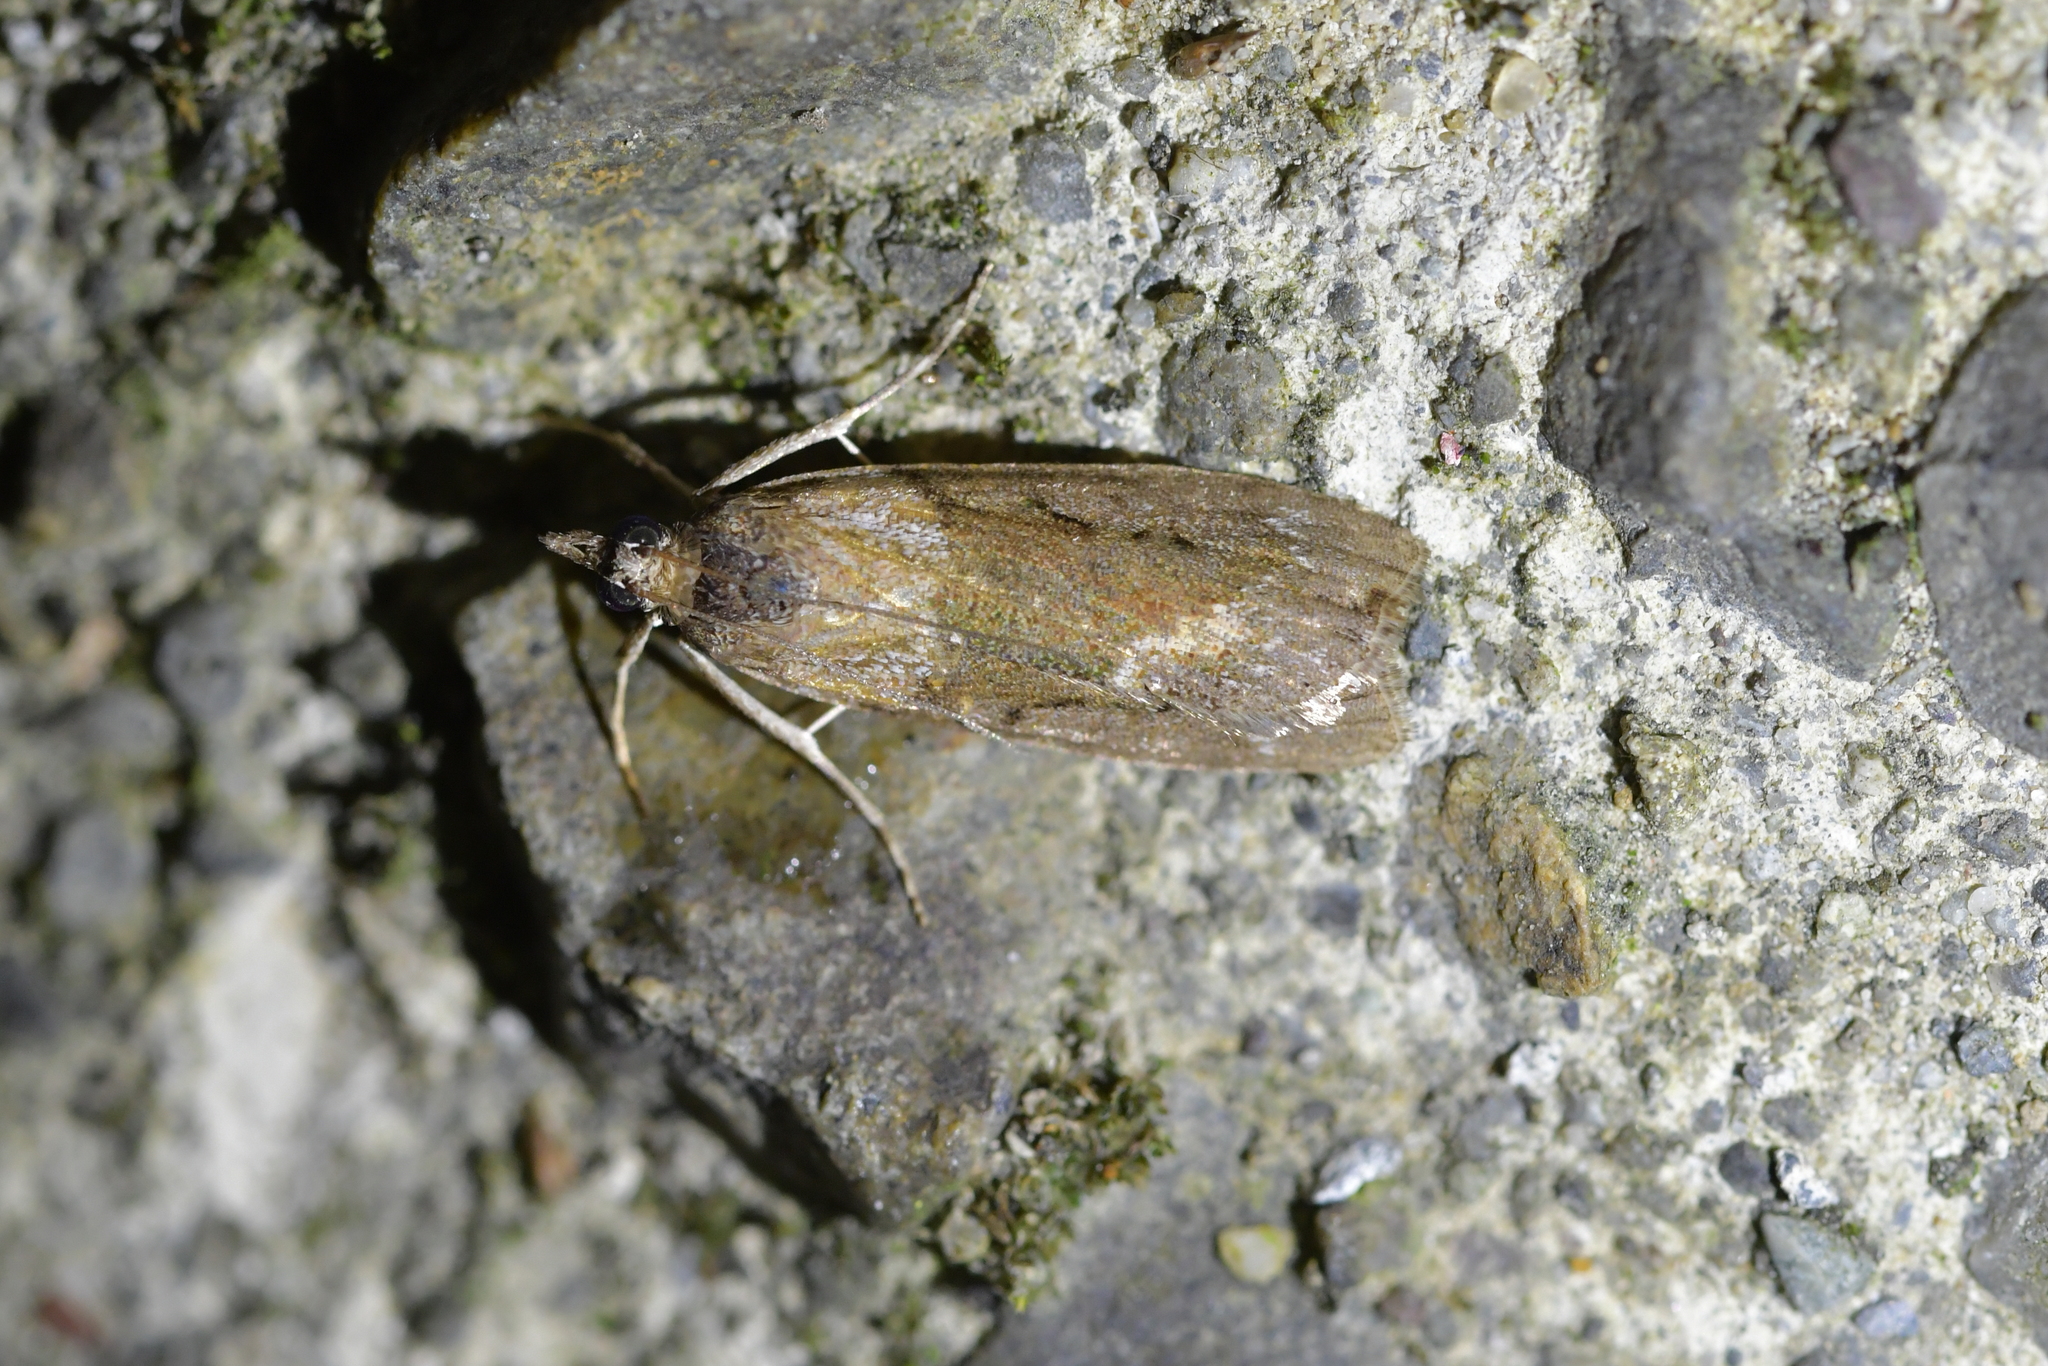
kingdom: Animalia
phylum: Arthropoda
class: Insecta
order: Lepidoptera
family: Crambidae
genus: Eudonia
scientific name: Eudonia submarginalis
